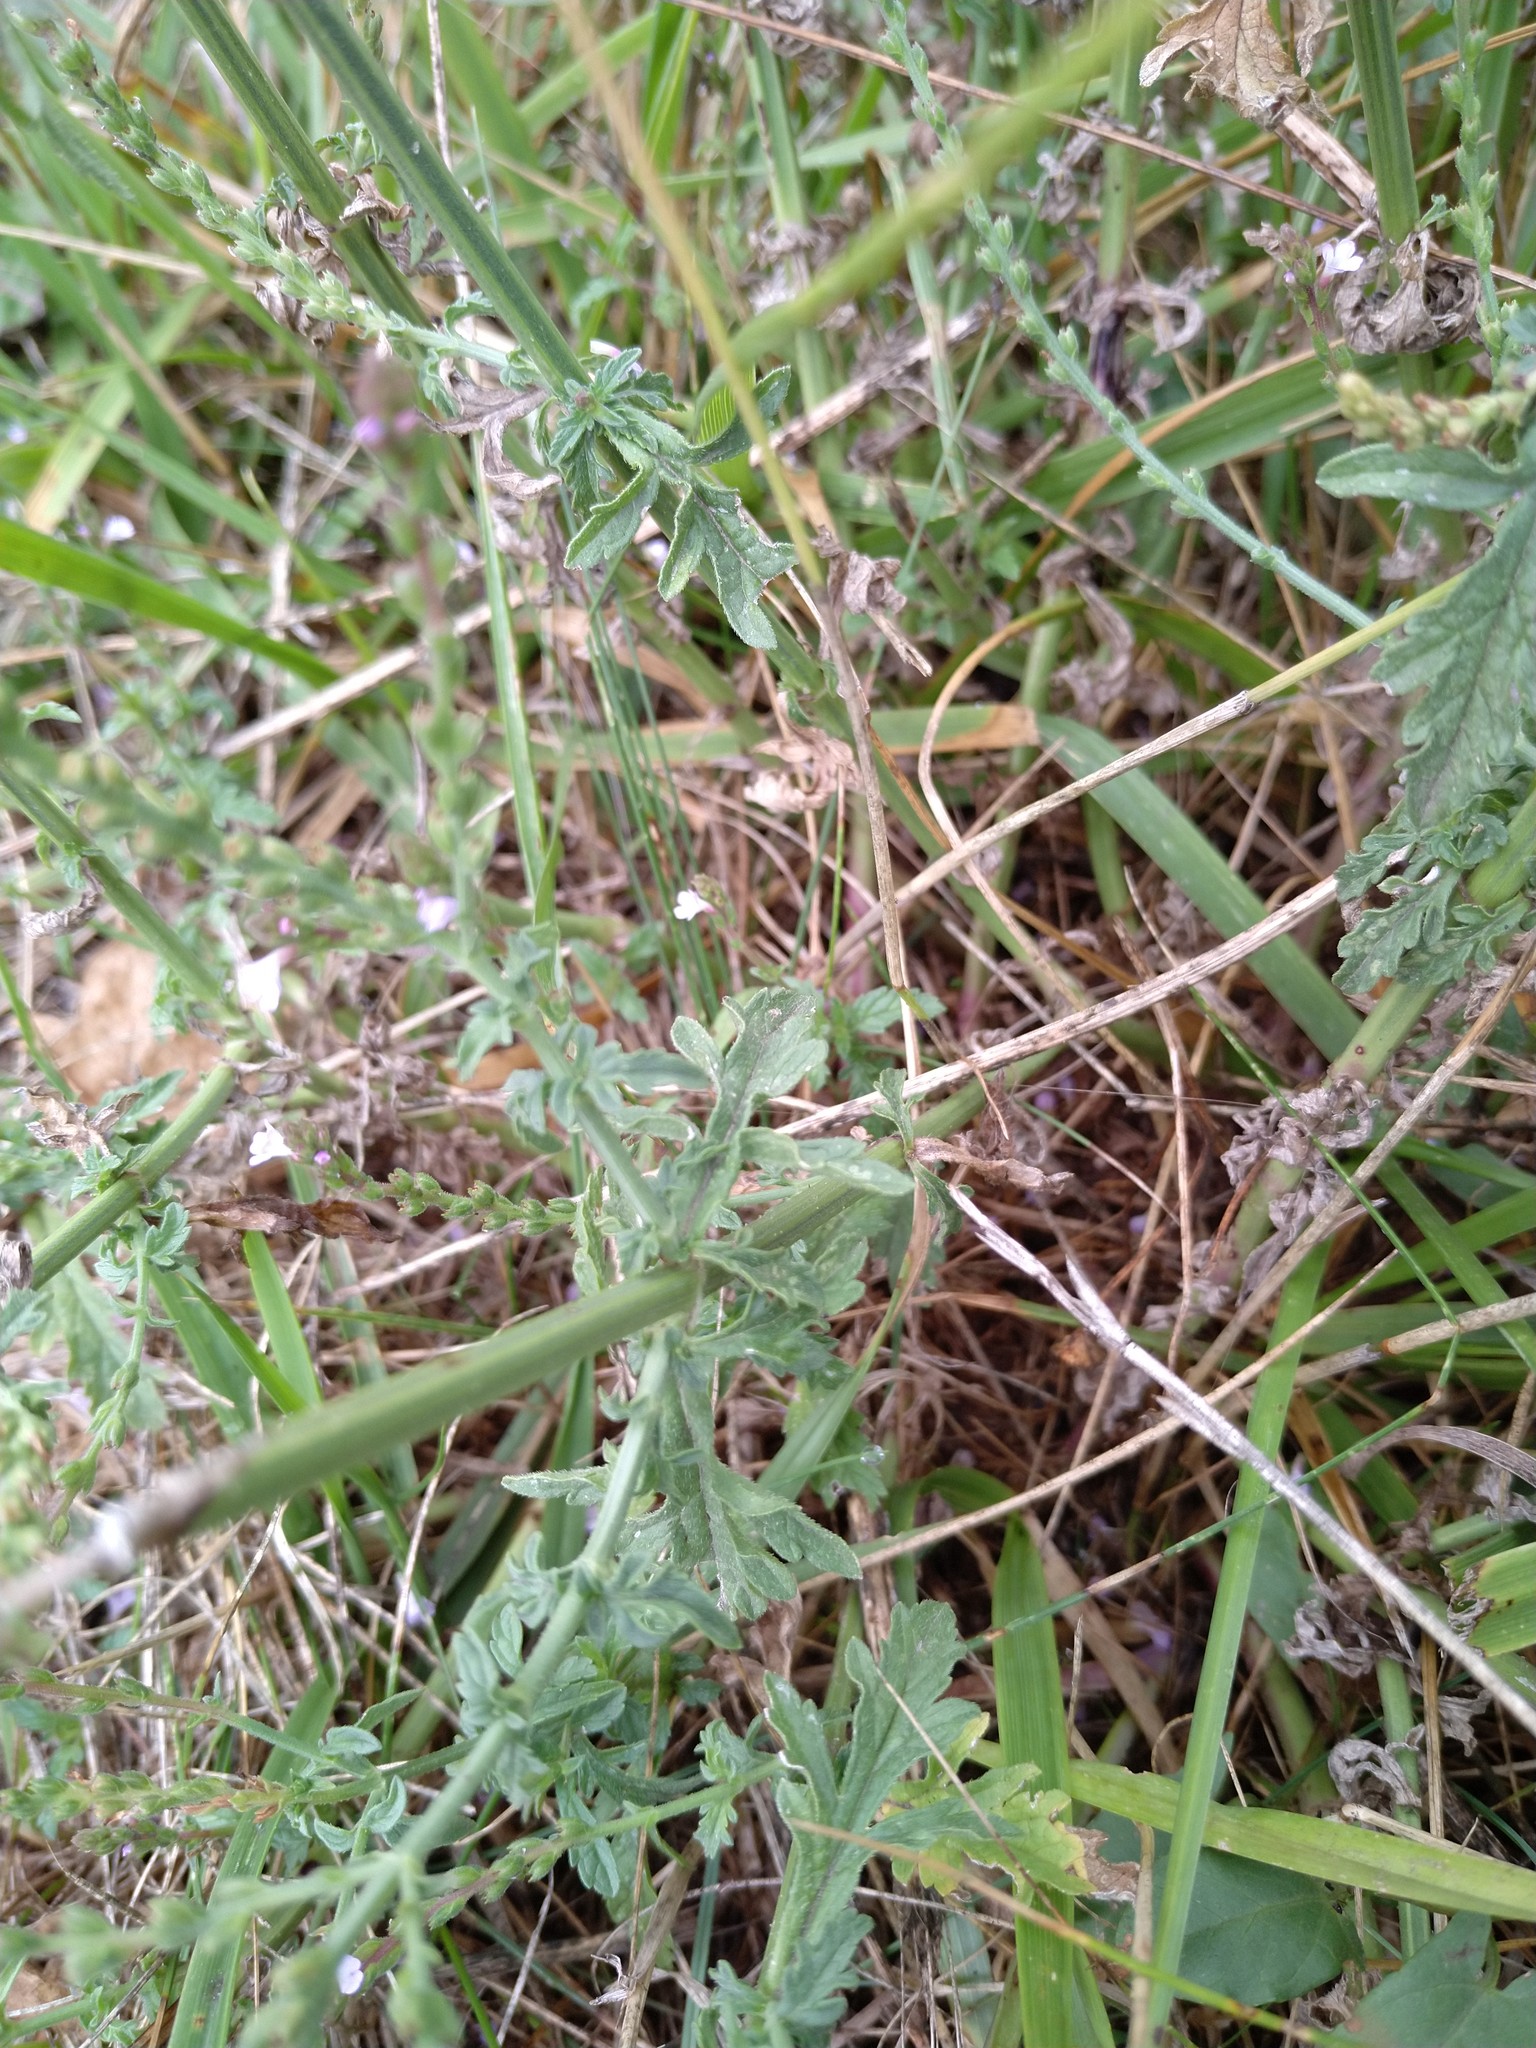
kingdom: Plantae
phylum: Tracheophyta
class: Magnoliopsida
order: Lamiales
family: Verbenaceae
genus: Verbena
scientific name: Verbena officinalis
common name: Vervain
